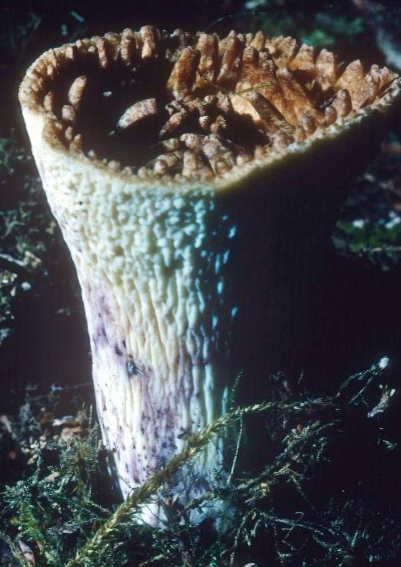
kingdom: Fungi
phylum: Basidiomycota
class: Agaricomycetes
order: Gomphales
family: Gomphaceae
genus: Turbinellus
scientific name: Turbinellus kauffmanii
